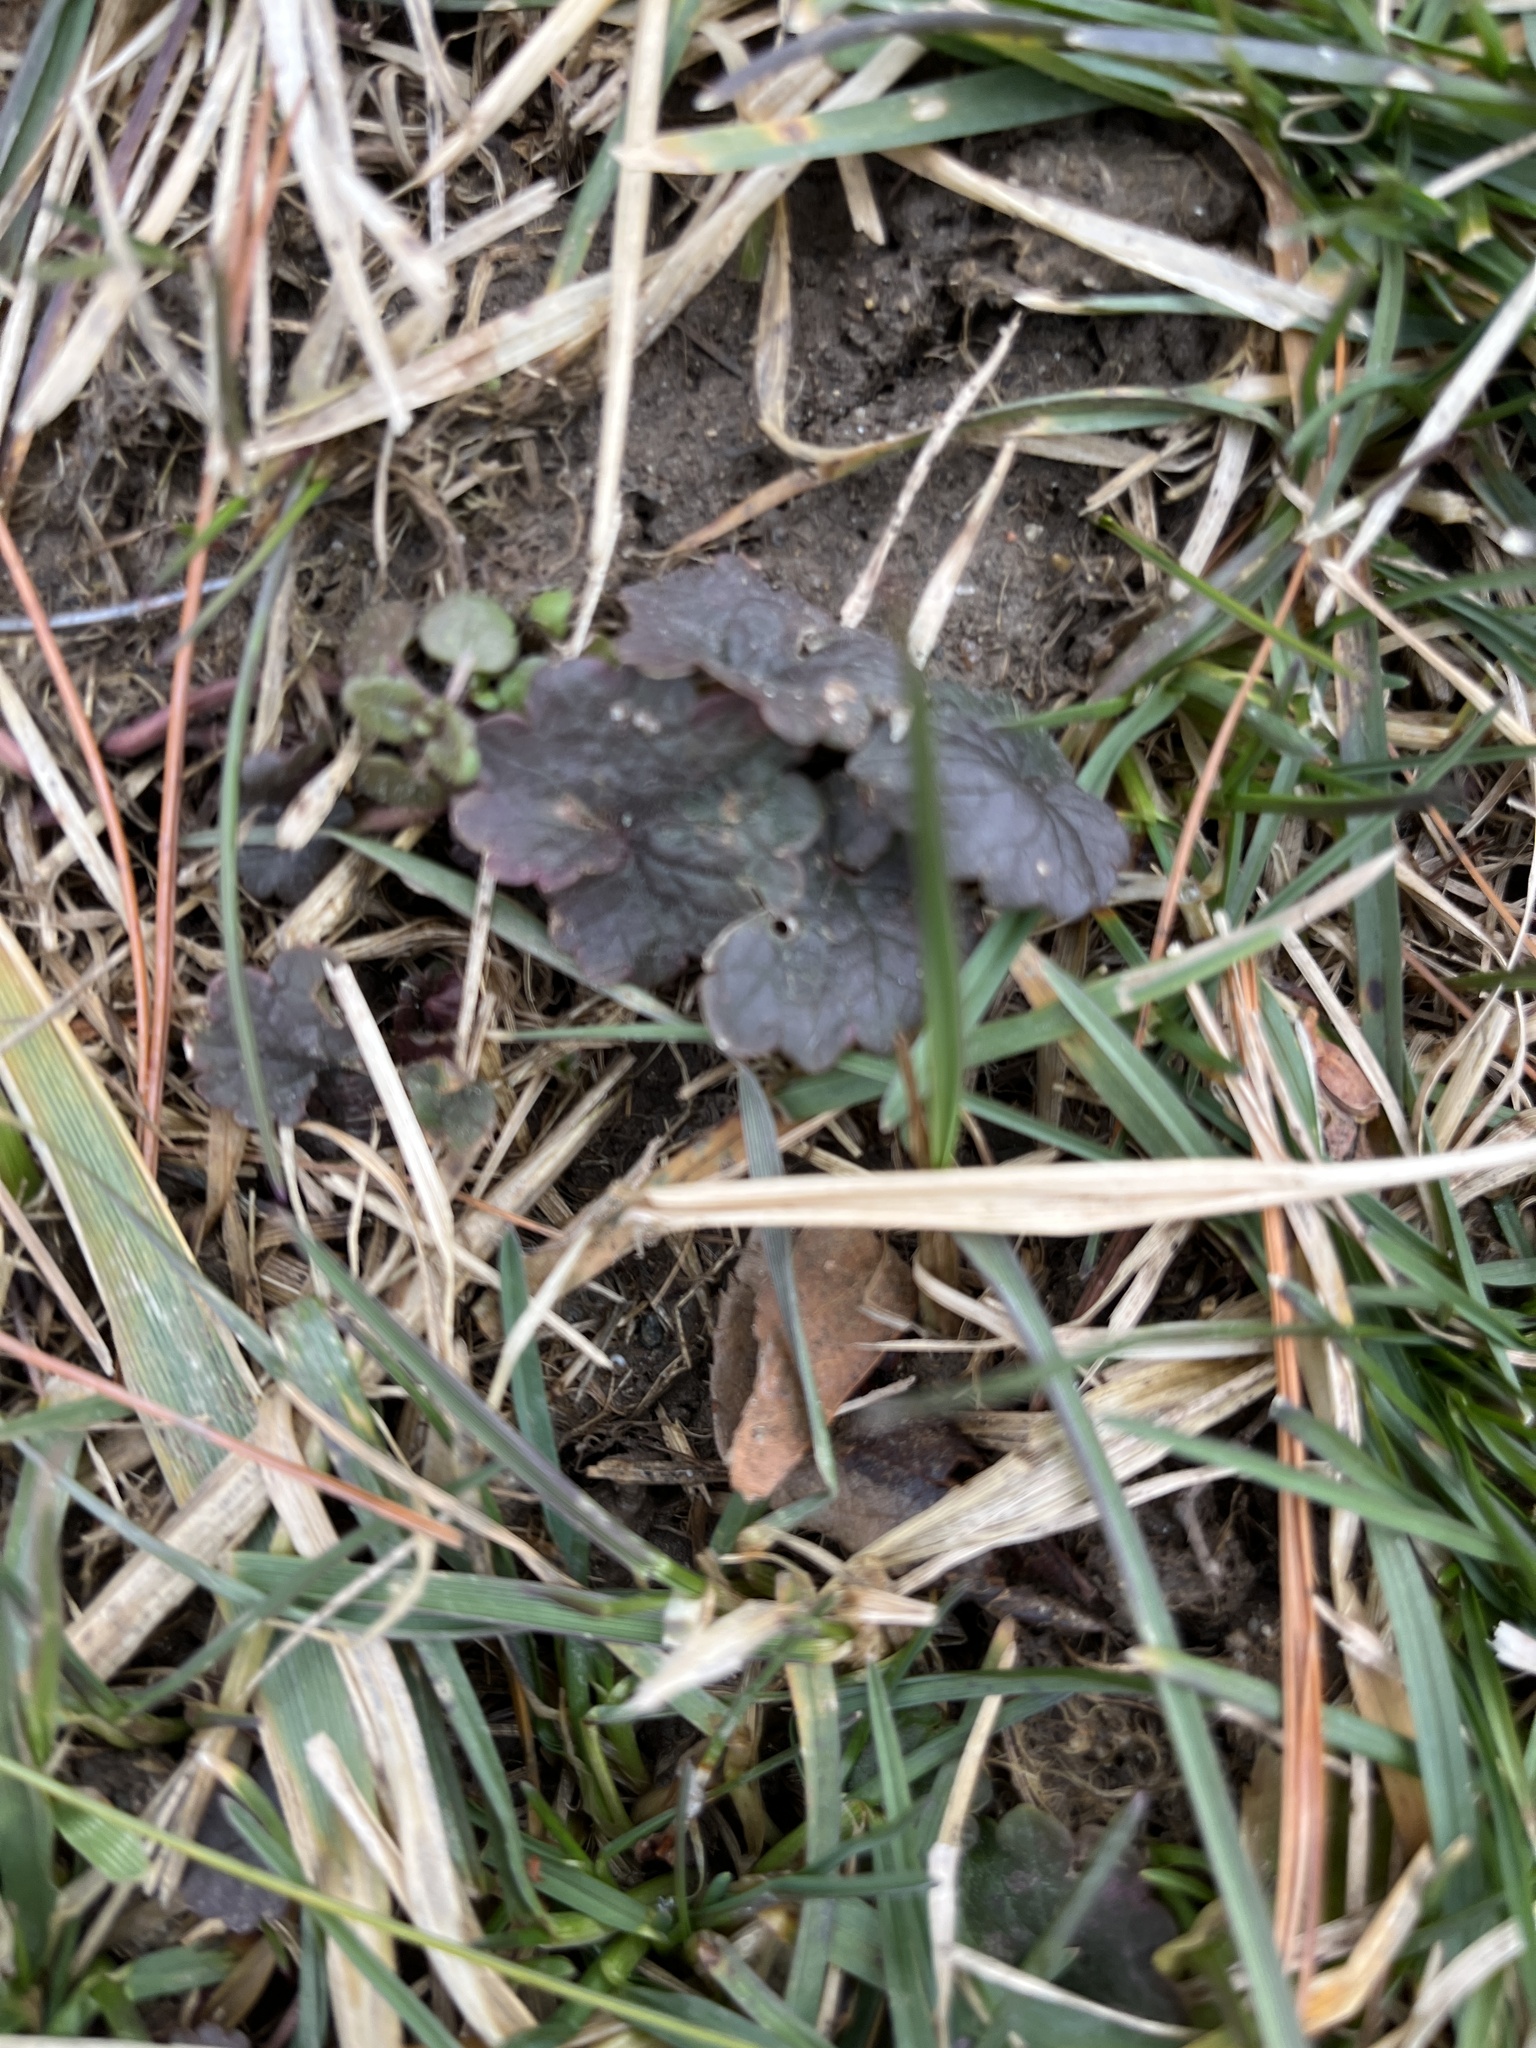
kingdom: Plantae
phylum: Tracheophyta
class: Magnoliopsida
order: Lamiales
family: Lamiaceae
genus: Glechoma
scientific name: Glechoma hederacea
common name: Ground ivy
